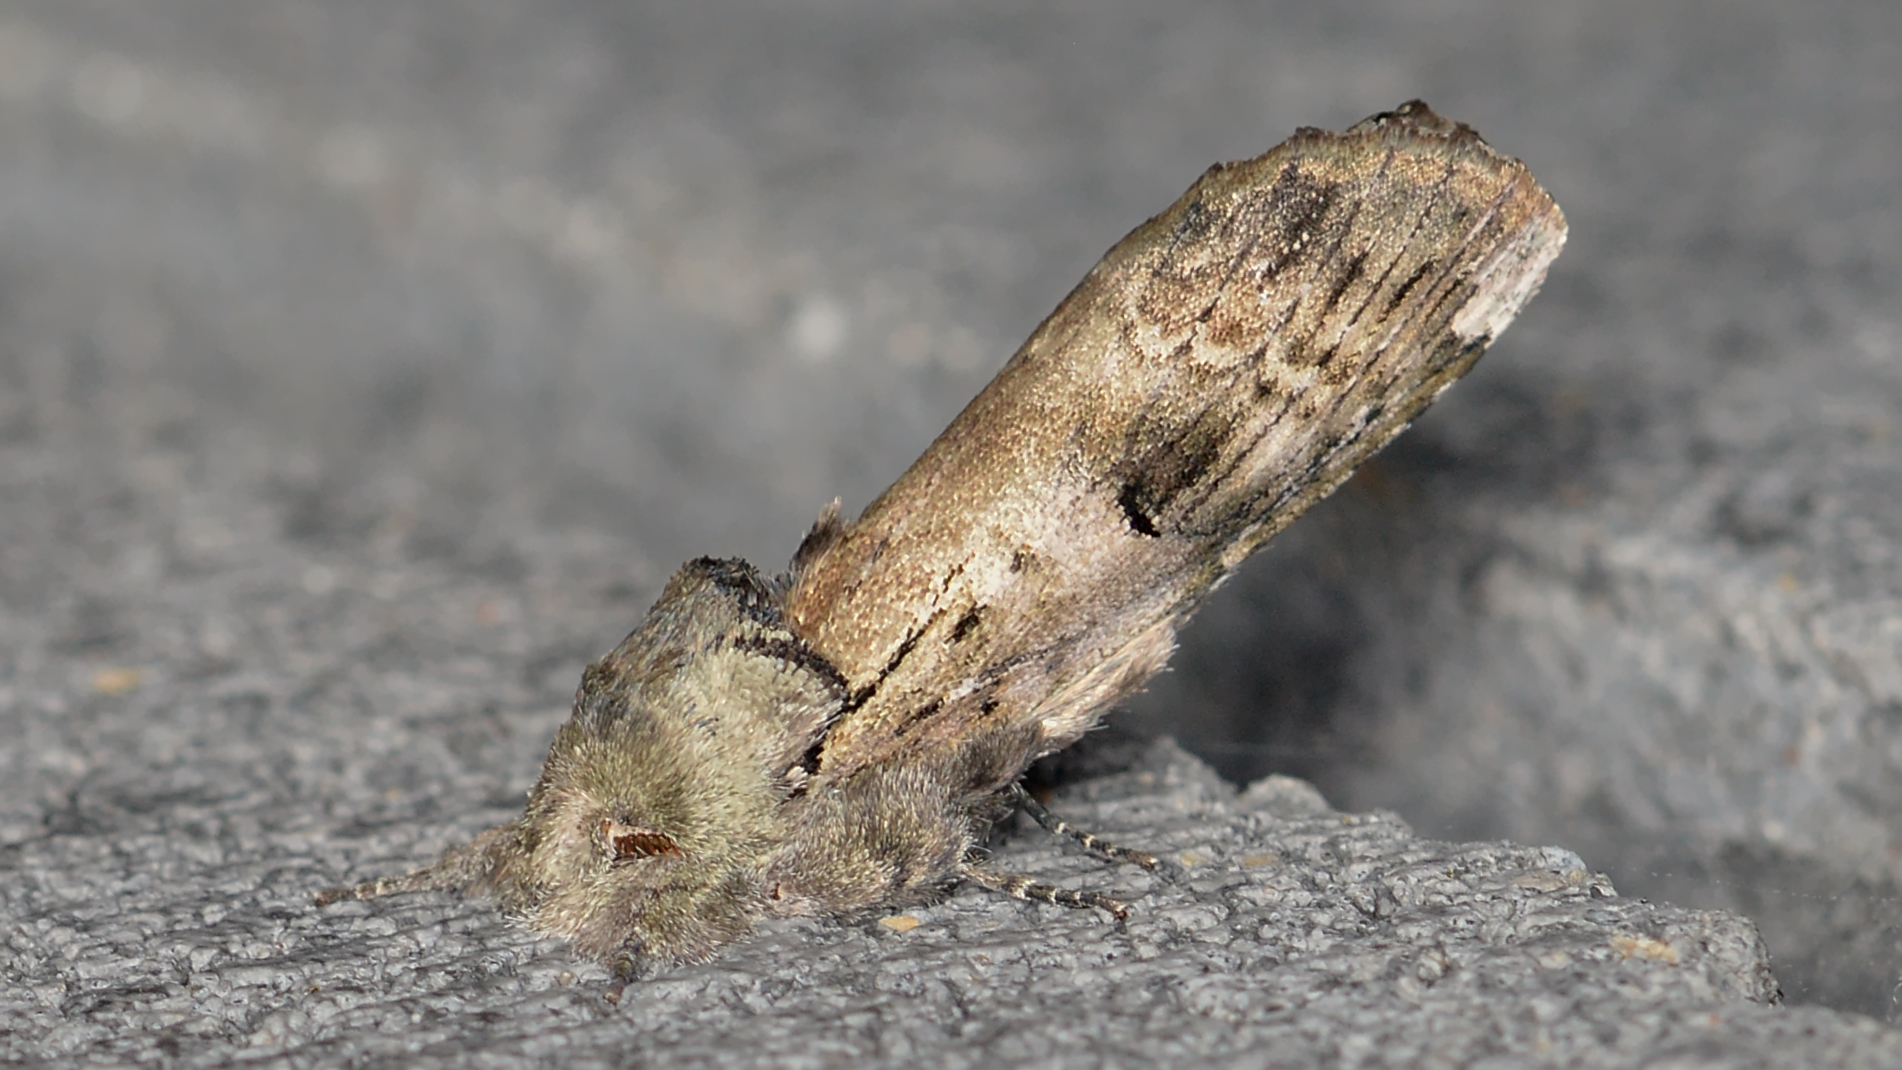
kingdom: Animalia
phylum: Arthropoda
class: Insecta
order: Lepidoptera
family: Notodontidae
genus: Schizura
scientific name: Schizura
